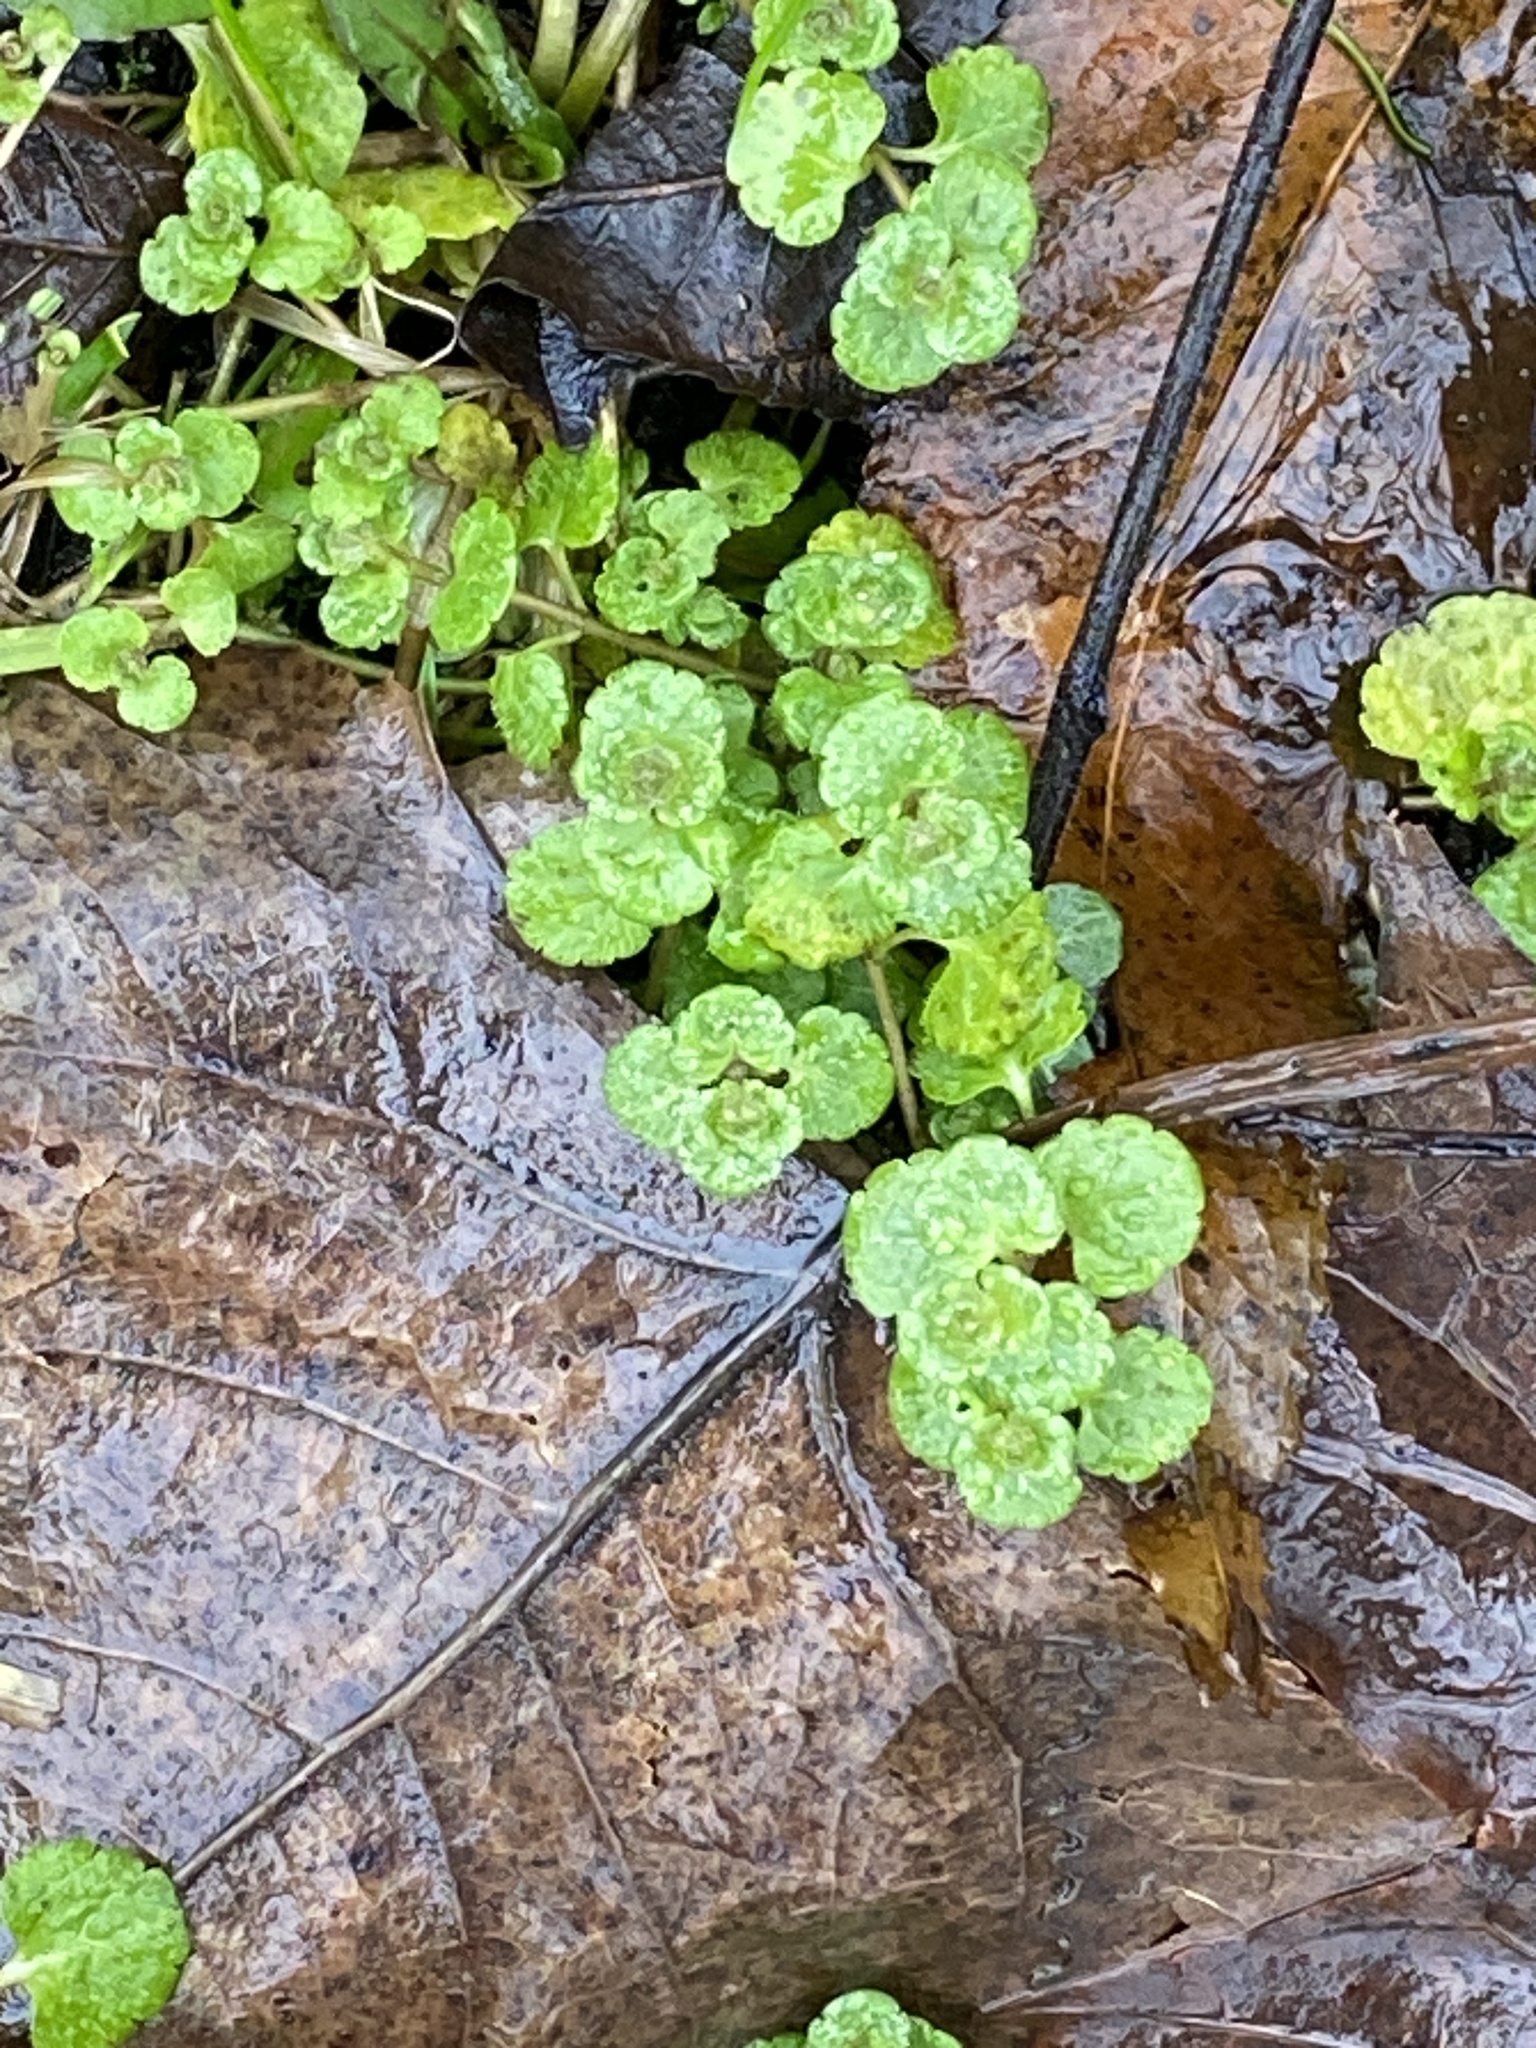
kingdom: Plantae
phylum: Tracheophyta
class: Magnoliopsida
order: Lamiales
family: Plantaginaceae
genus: Veronica
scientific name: Veronica filiformis
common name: Slender speedwell
